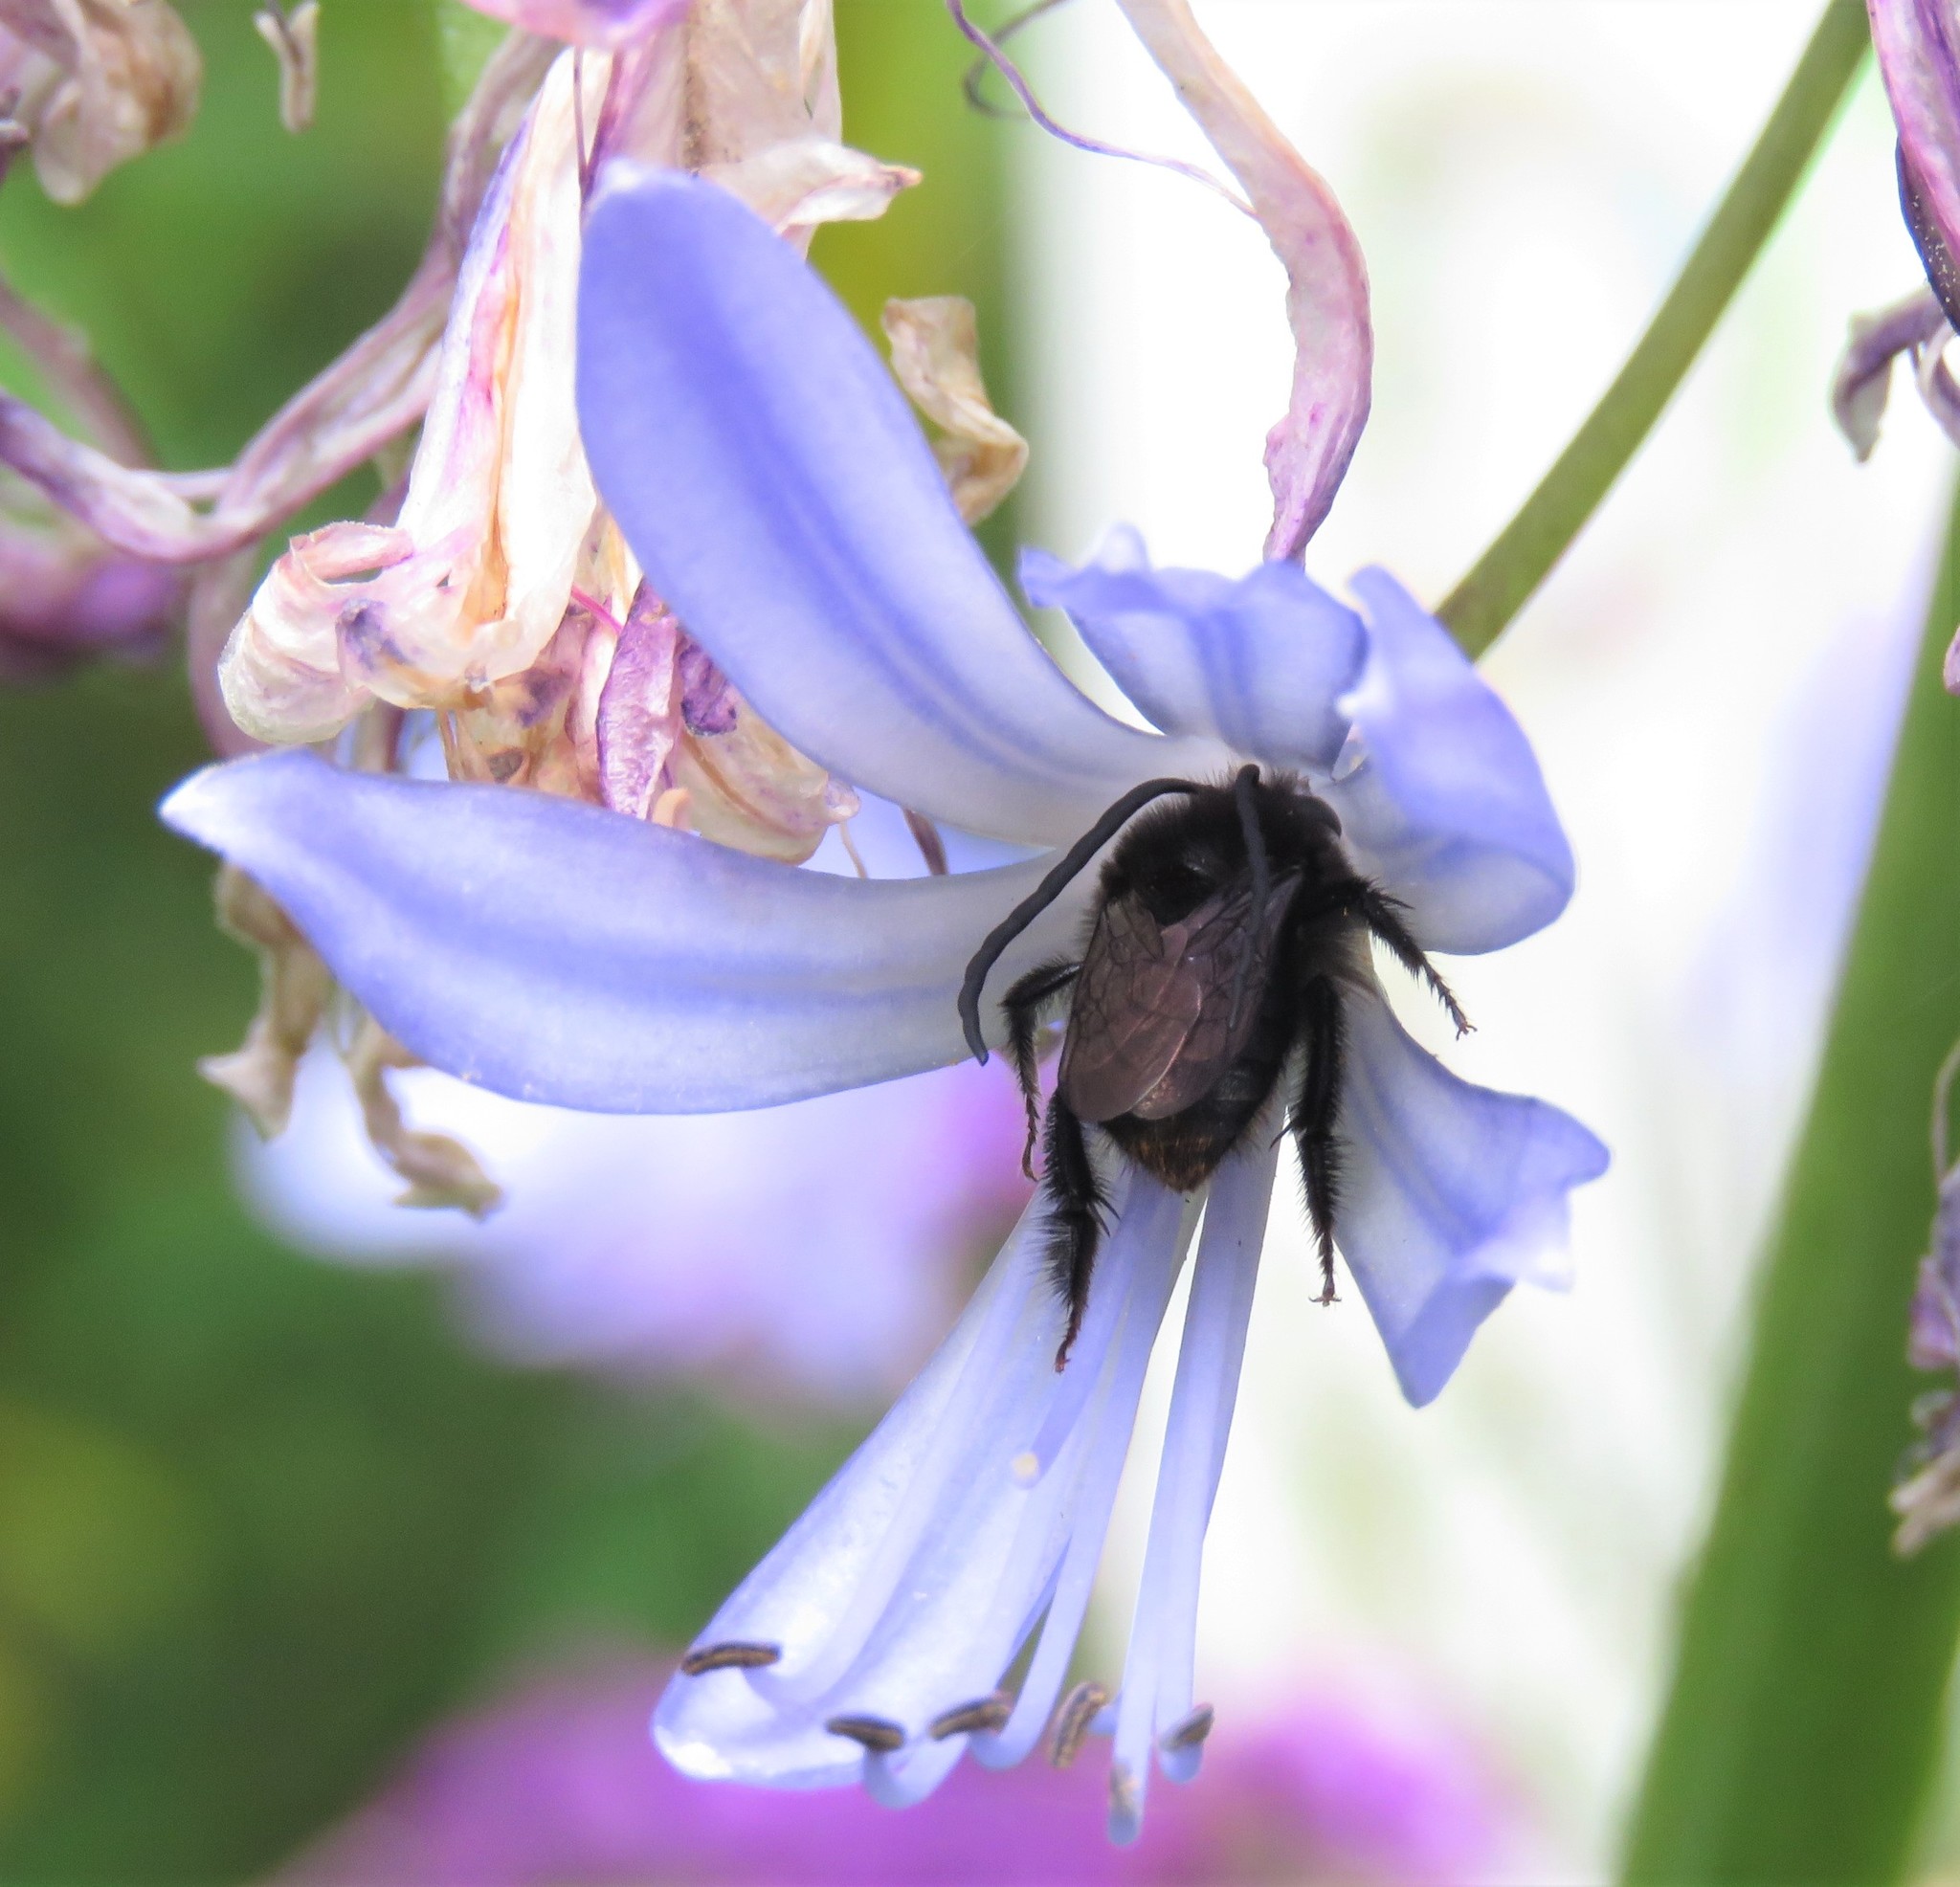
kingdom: Animalia
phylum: Arthropoda
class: Insecta
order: Hymenoptera
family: Apidae
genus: Thygater
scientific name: Thygater aethiops
